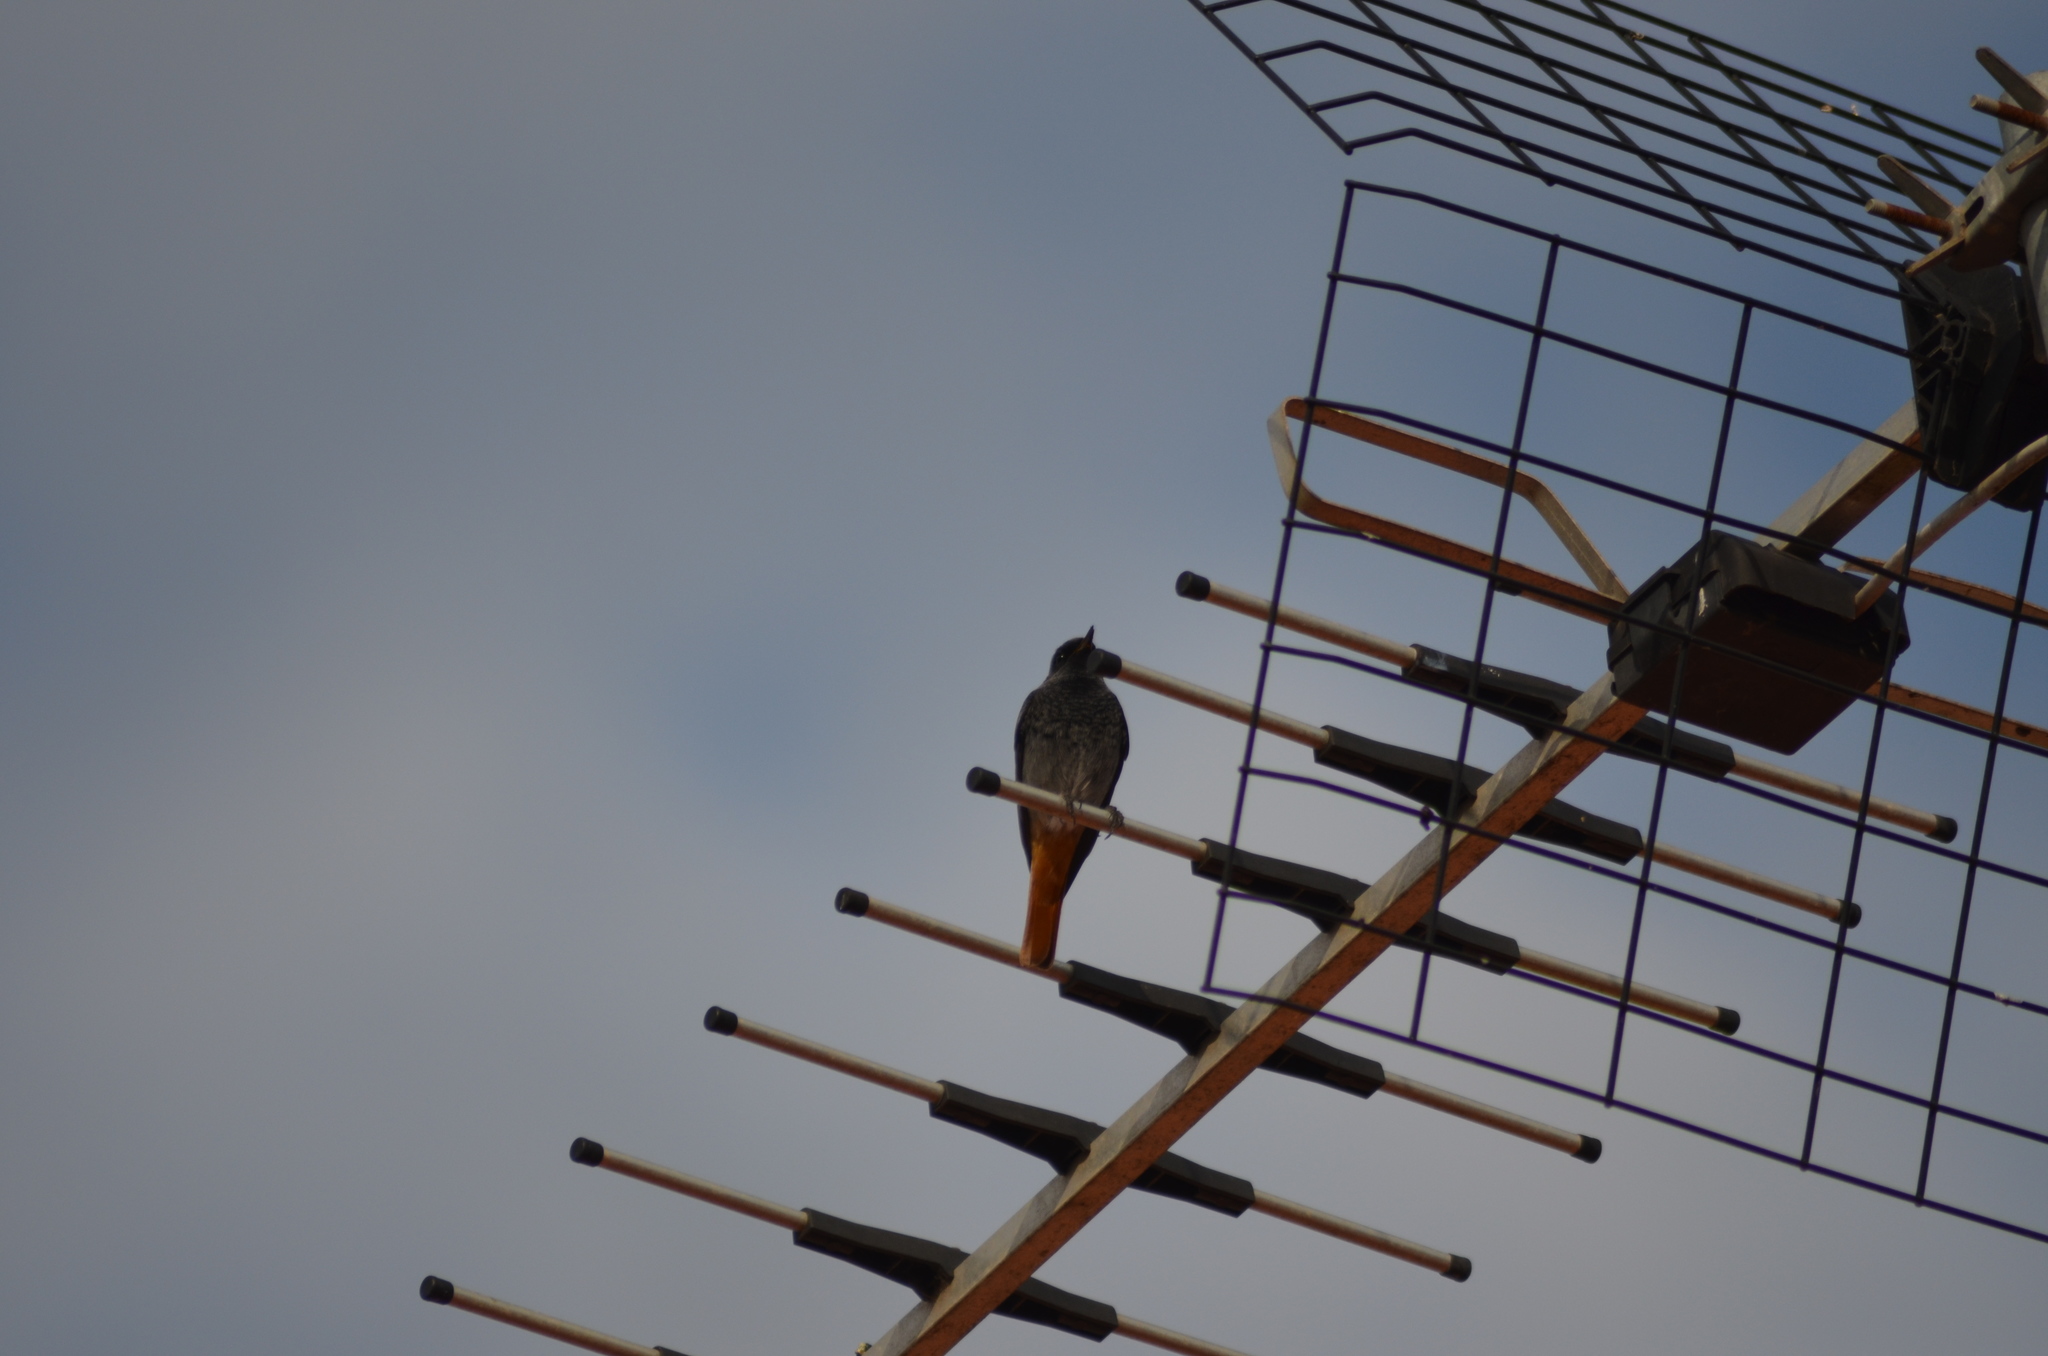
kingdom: Animalia
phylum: Chordata
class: Aves
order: Passeriformes
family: Muscicapidae
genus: Phoenicurus
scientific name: Phoenicurus ochruros
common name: Black redstart
